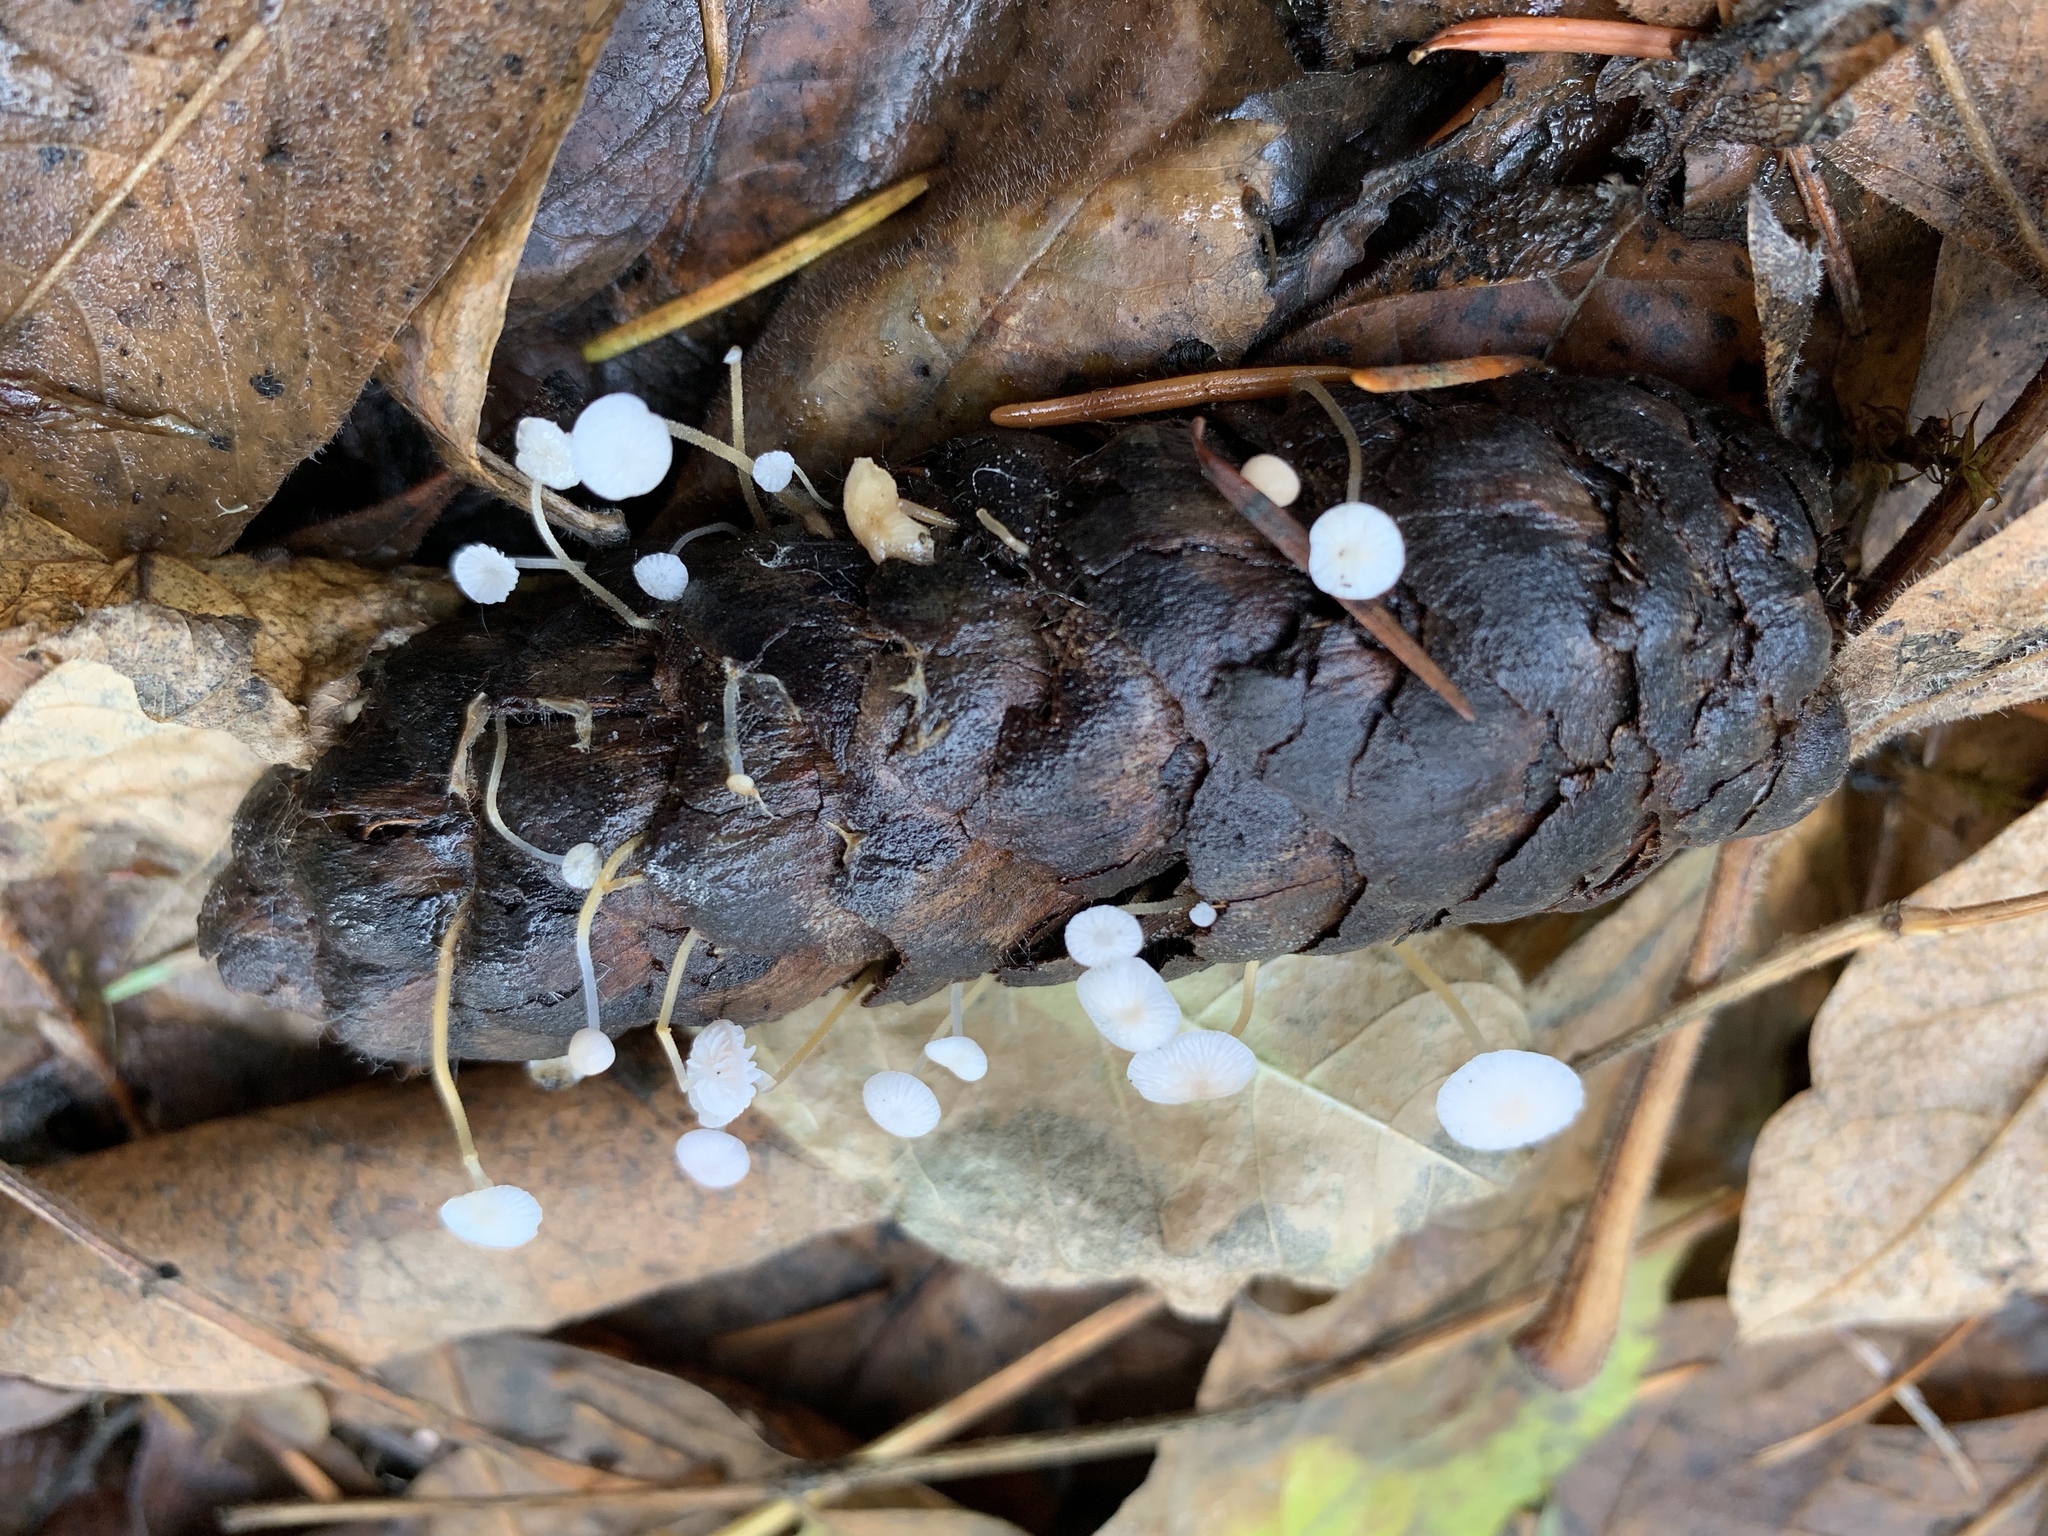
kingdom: Fungi
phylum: Basidiomycota
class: Agaricomycetes
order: Agaricales
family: Physalacriaceae
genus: Strobilurus
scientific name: Strobilurus trullisatus
